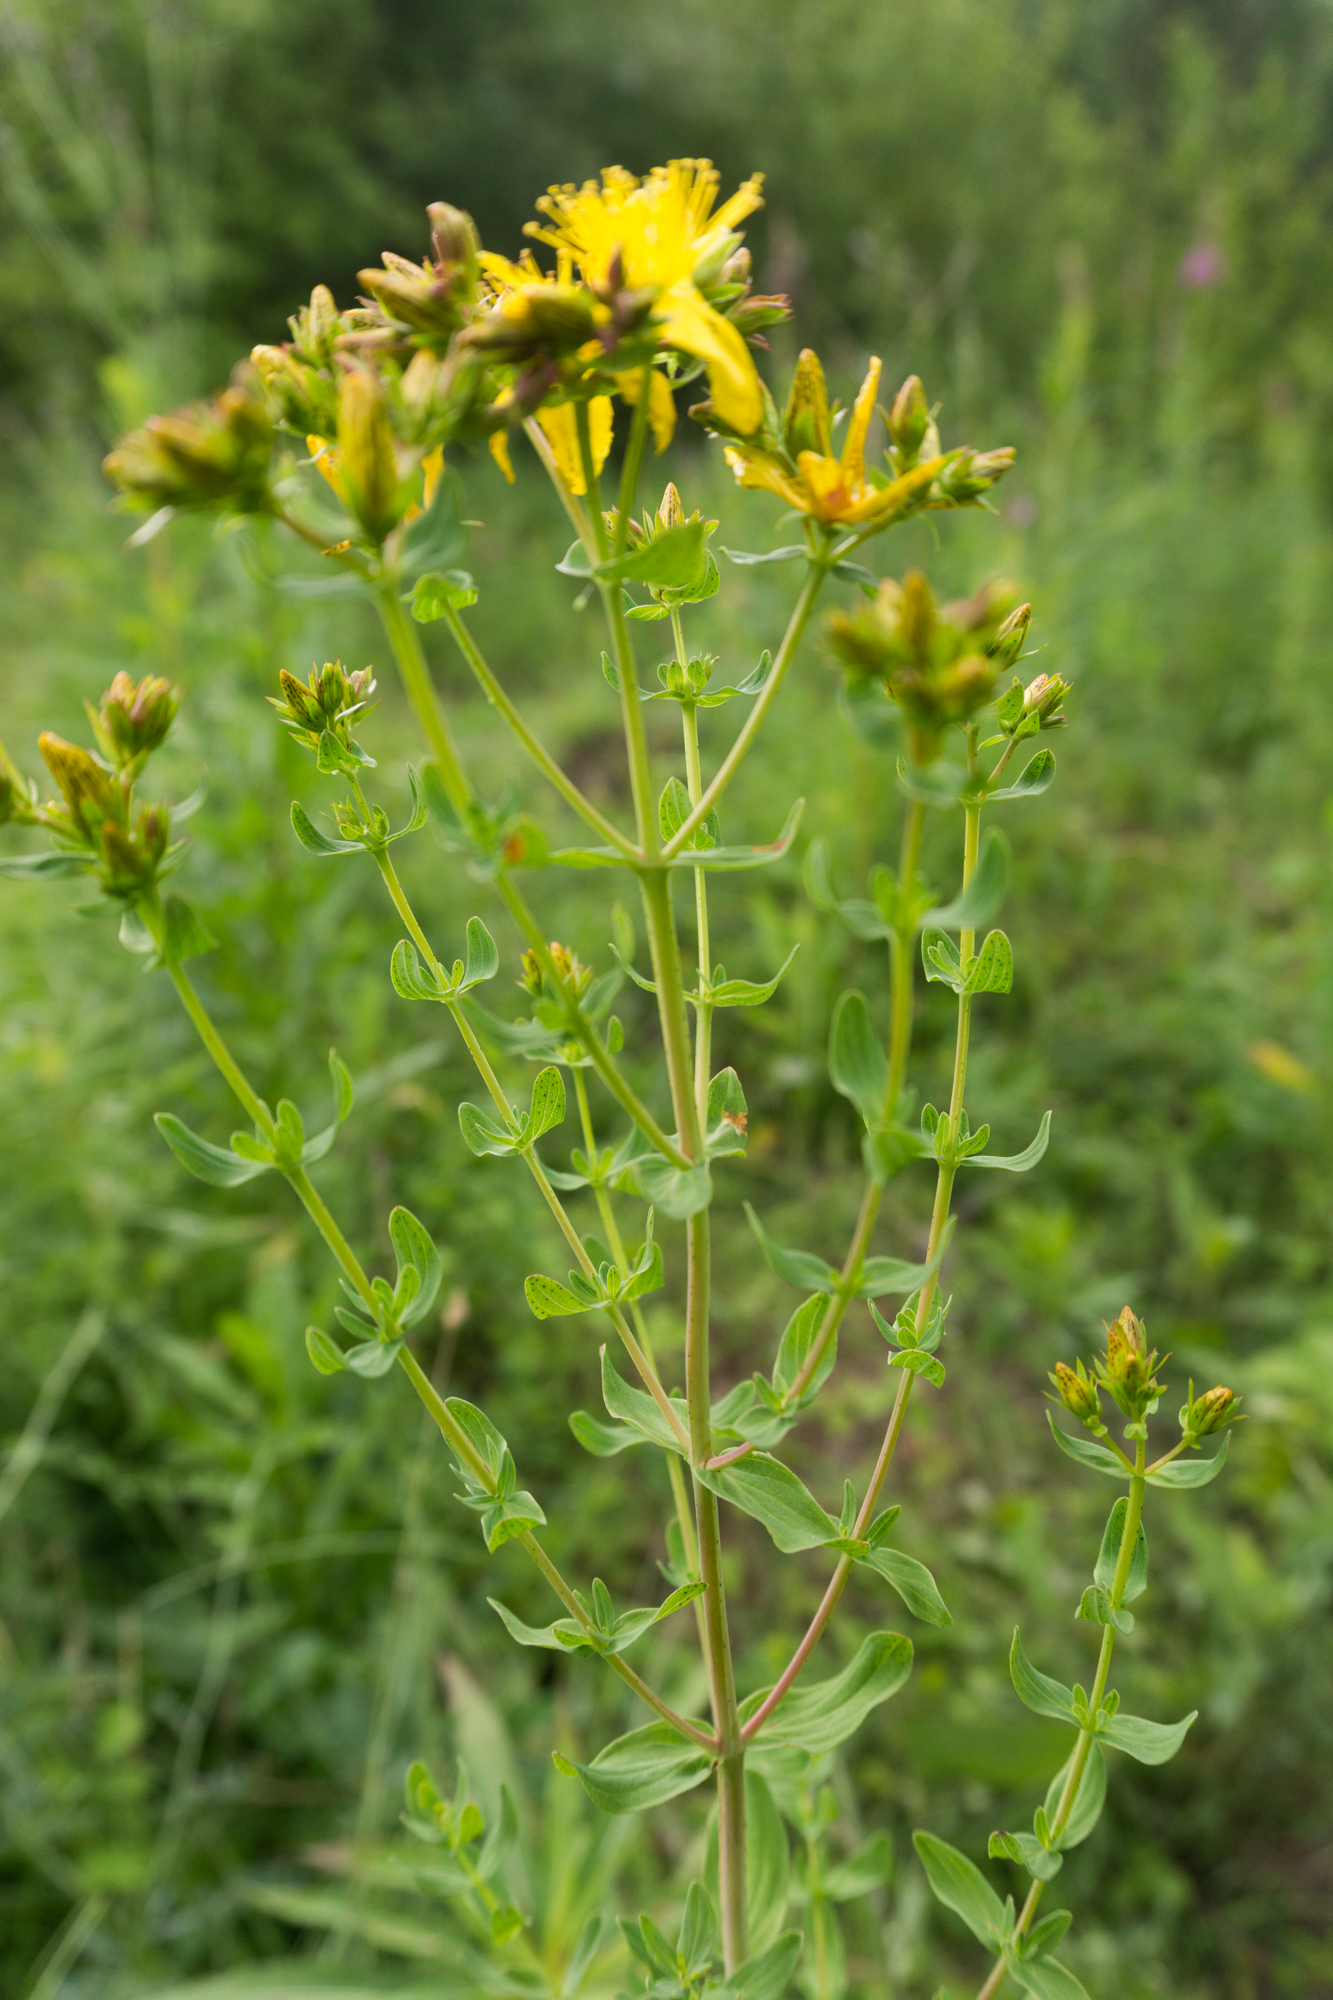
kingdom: Plantae
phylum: Tracheophyta
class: Magnoliopsida
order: Malpighiales
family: Hypericaceae
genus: Hypericum
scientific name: Hypericum perforatum
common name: Common st. johnswort
